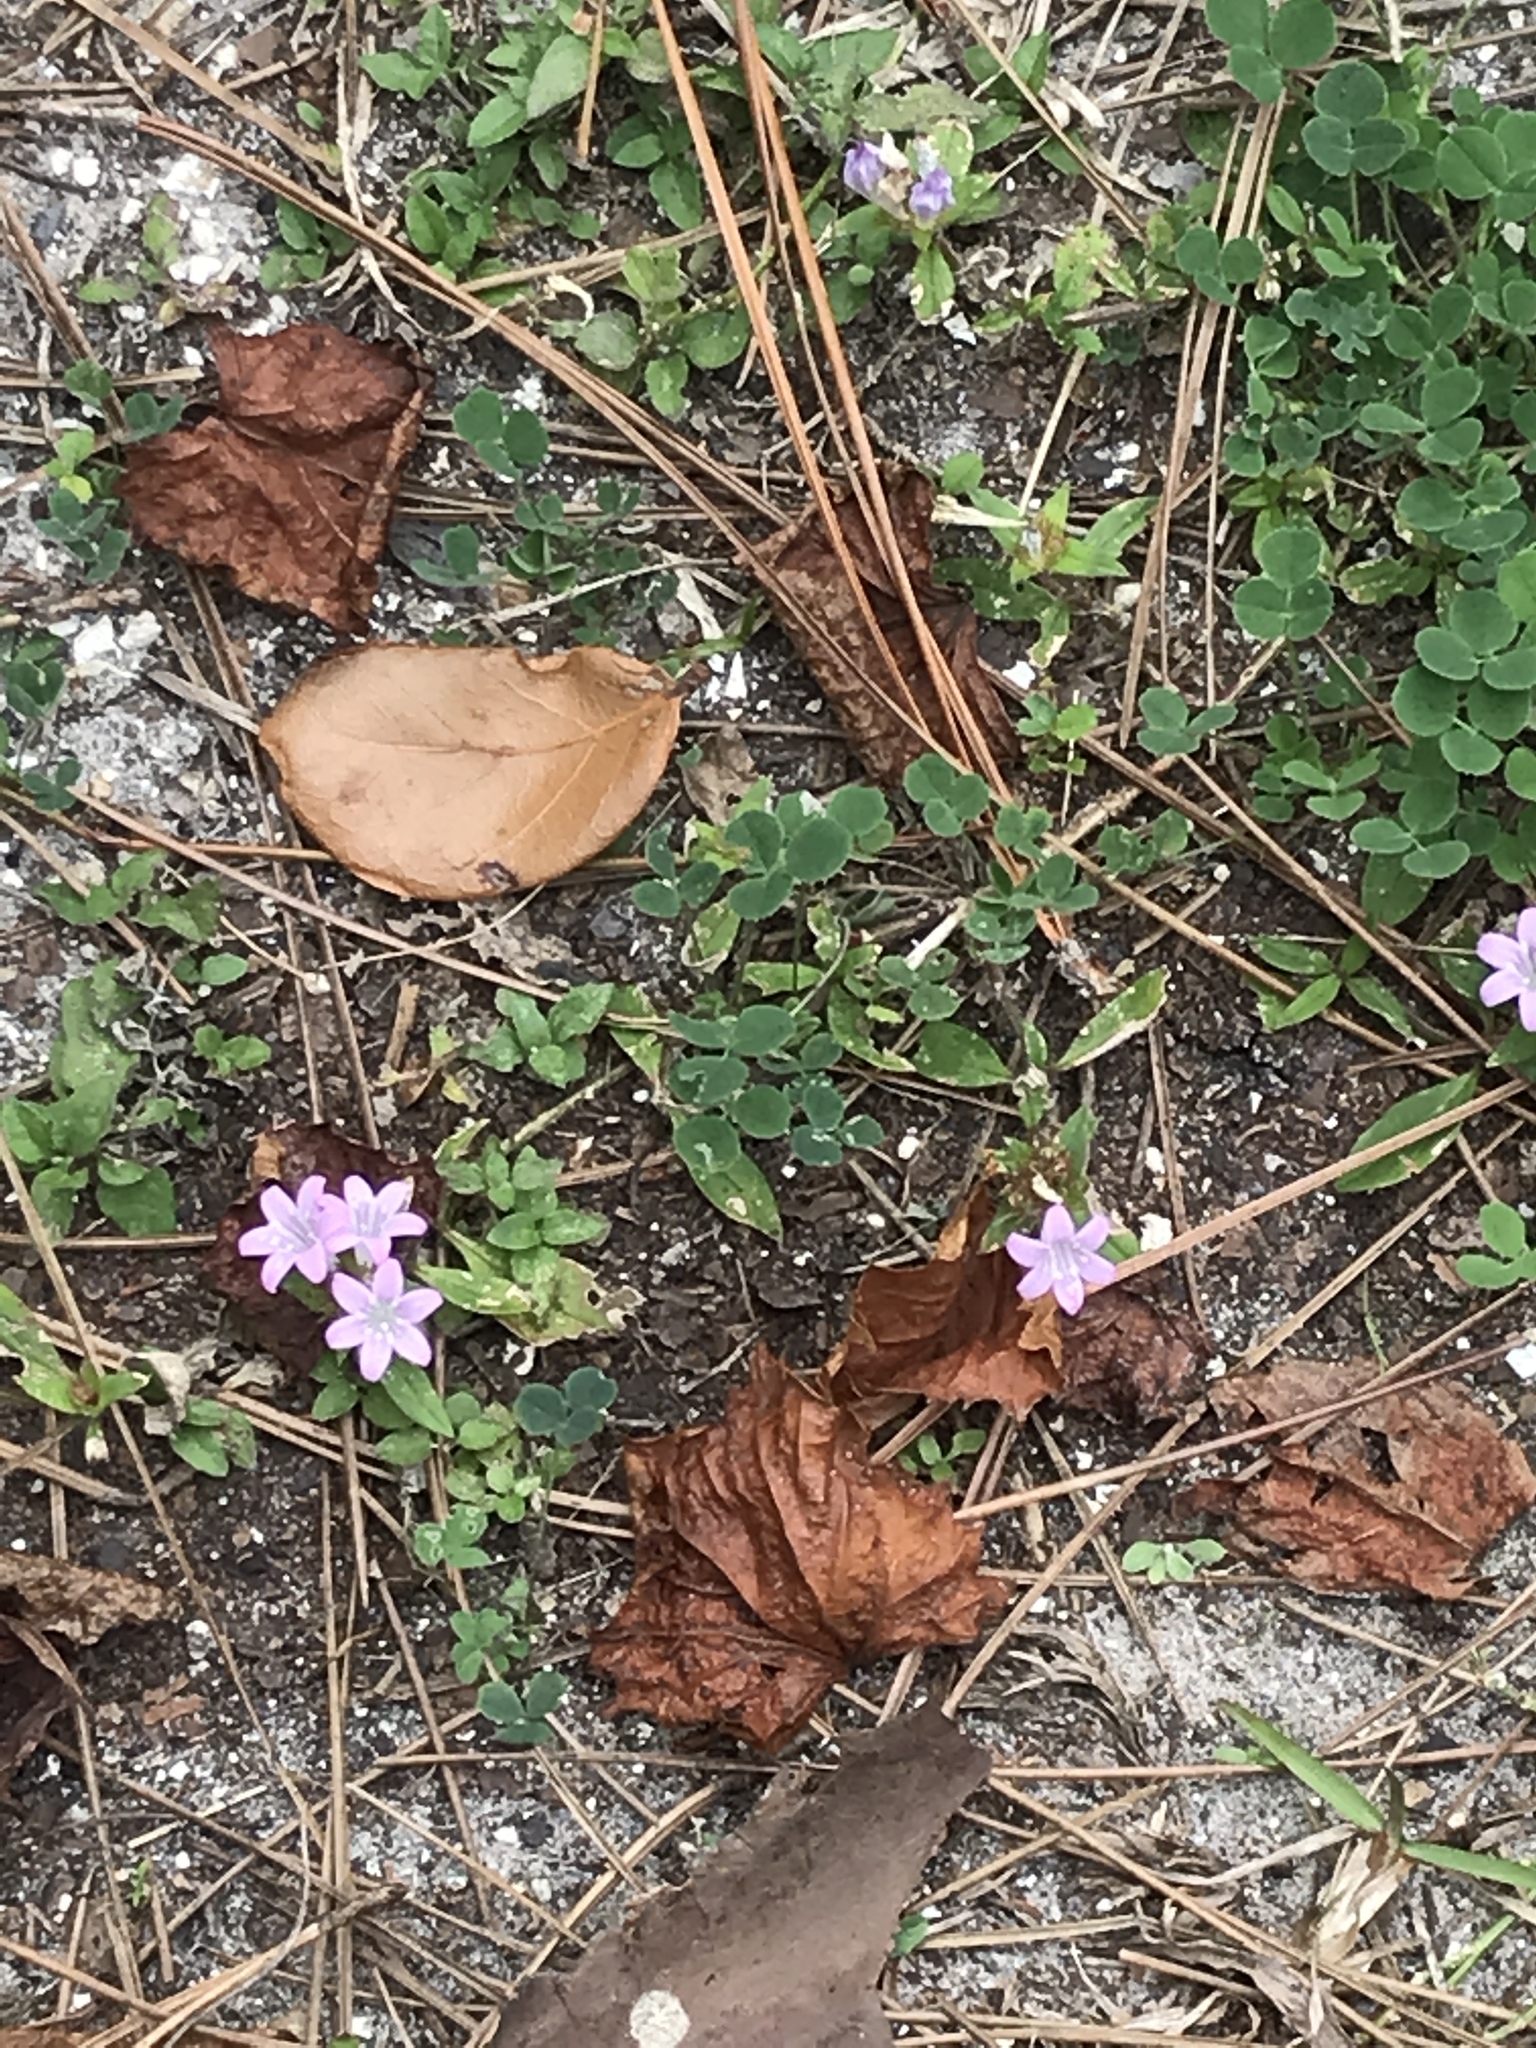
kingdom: Plantae
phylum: Tracheophyta
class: Magnoliopsida
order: Gentianales
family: Rubiaceae
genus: Richardia
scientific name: Richardia grandiflora
